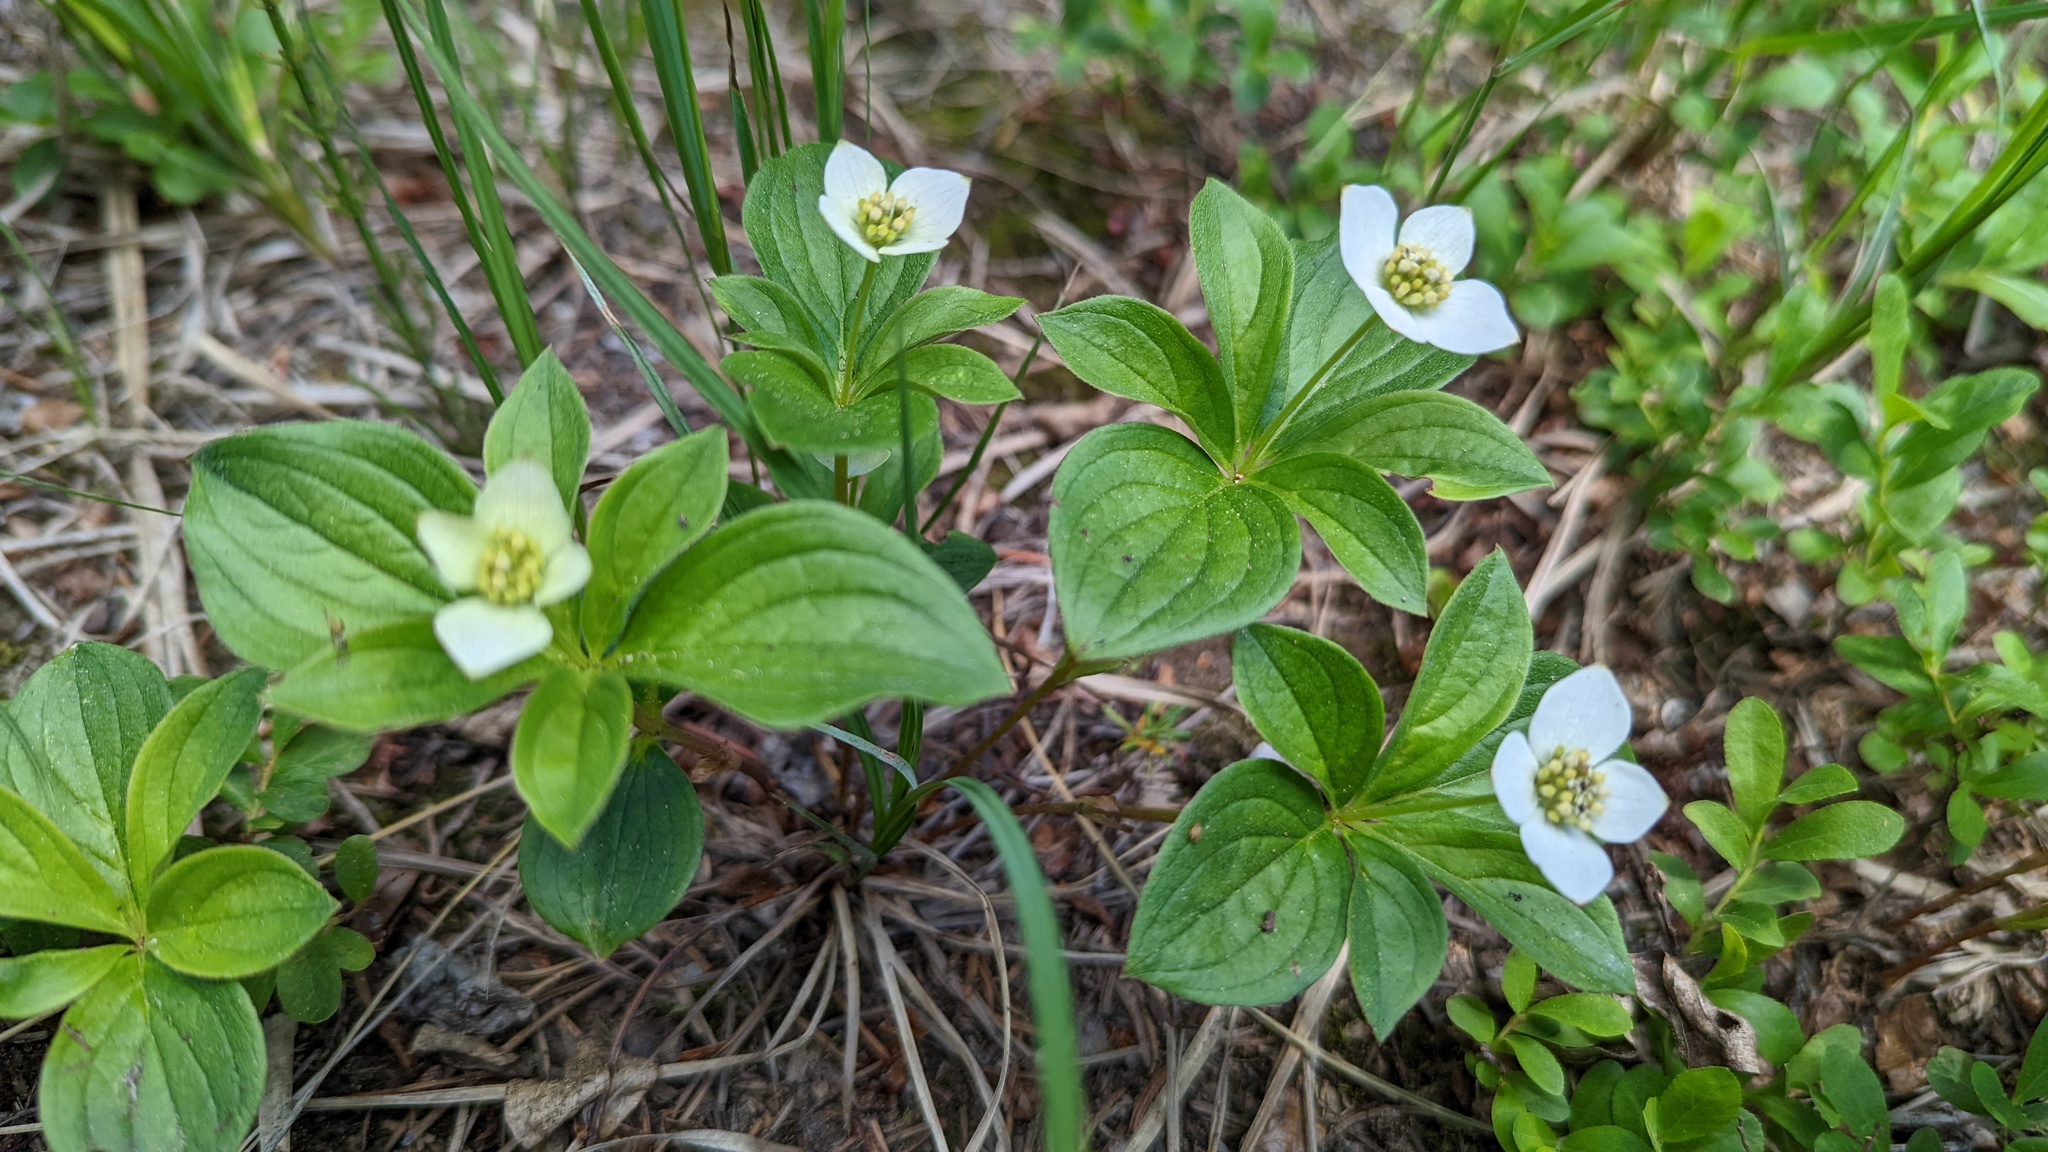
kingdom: Plantae
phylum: Tracheophyta
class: Magnoliopsida
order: Cornales
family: Cornaceae
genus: Cornus
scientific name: Cornus canadensis
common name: Creeping dogwood
